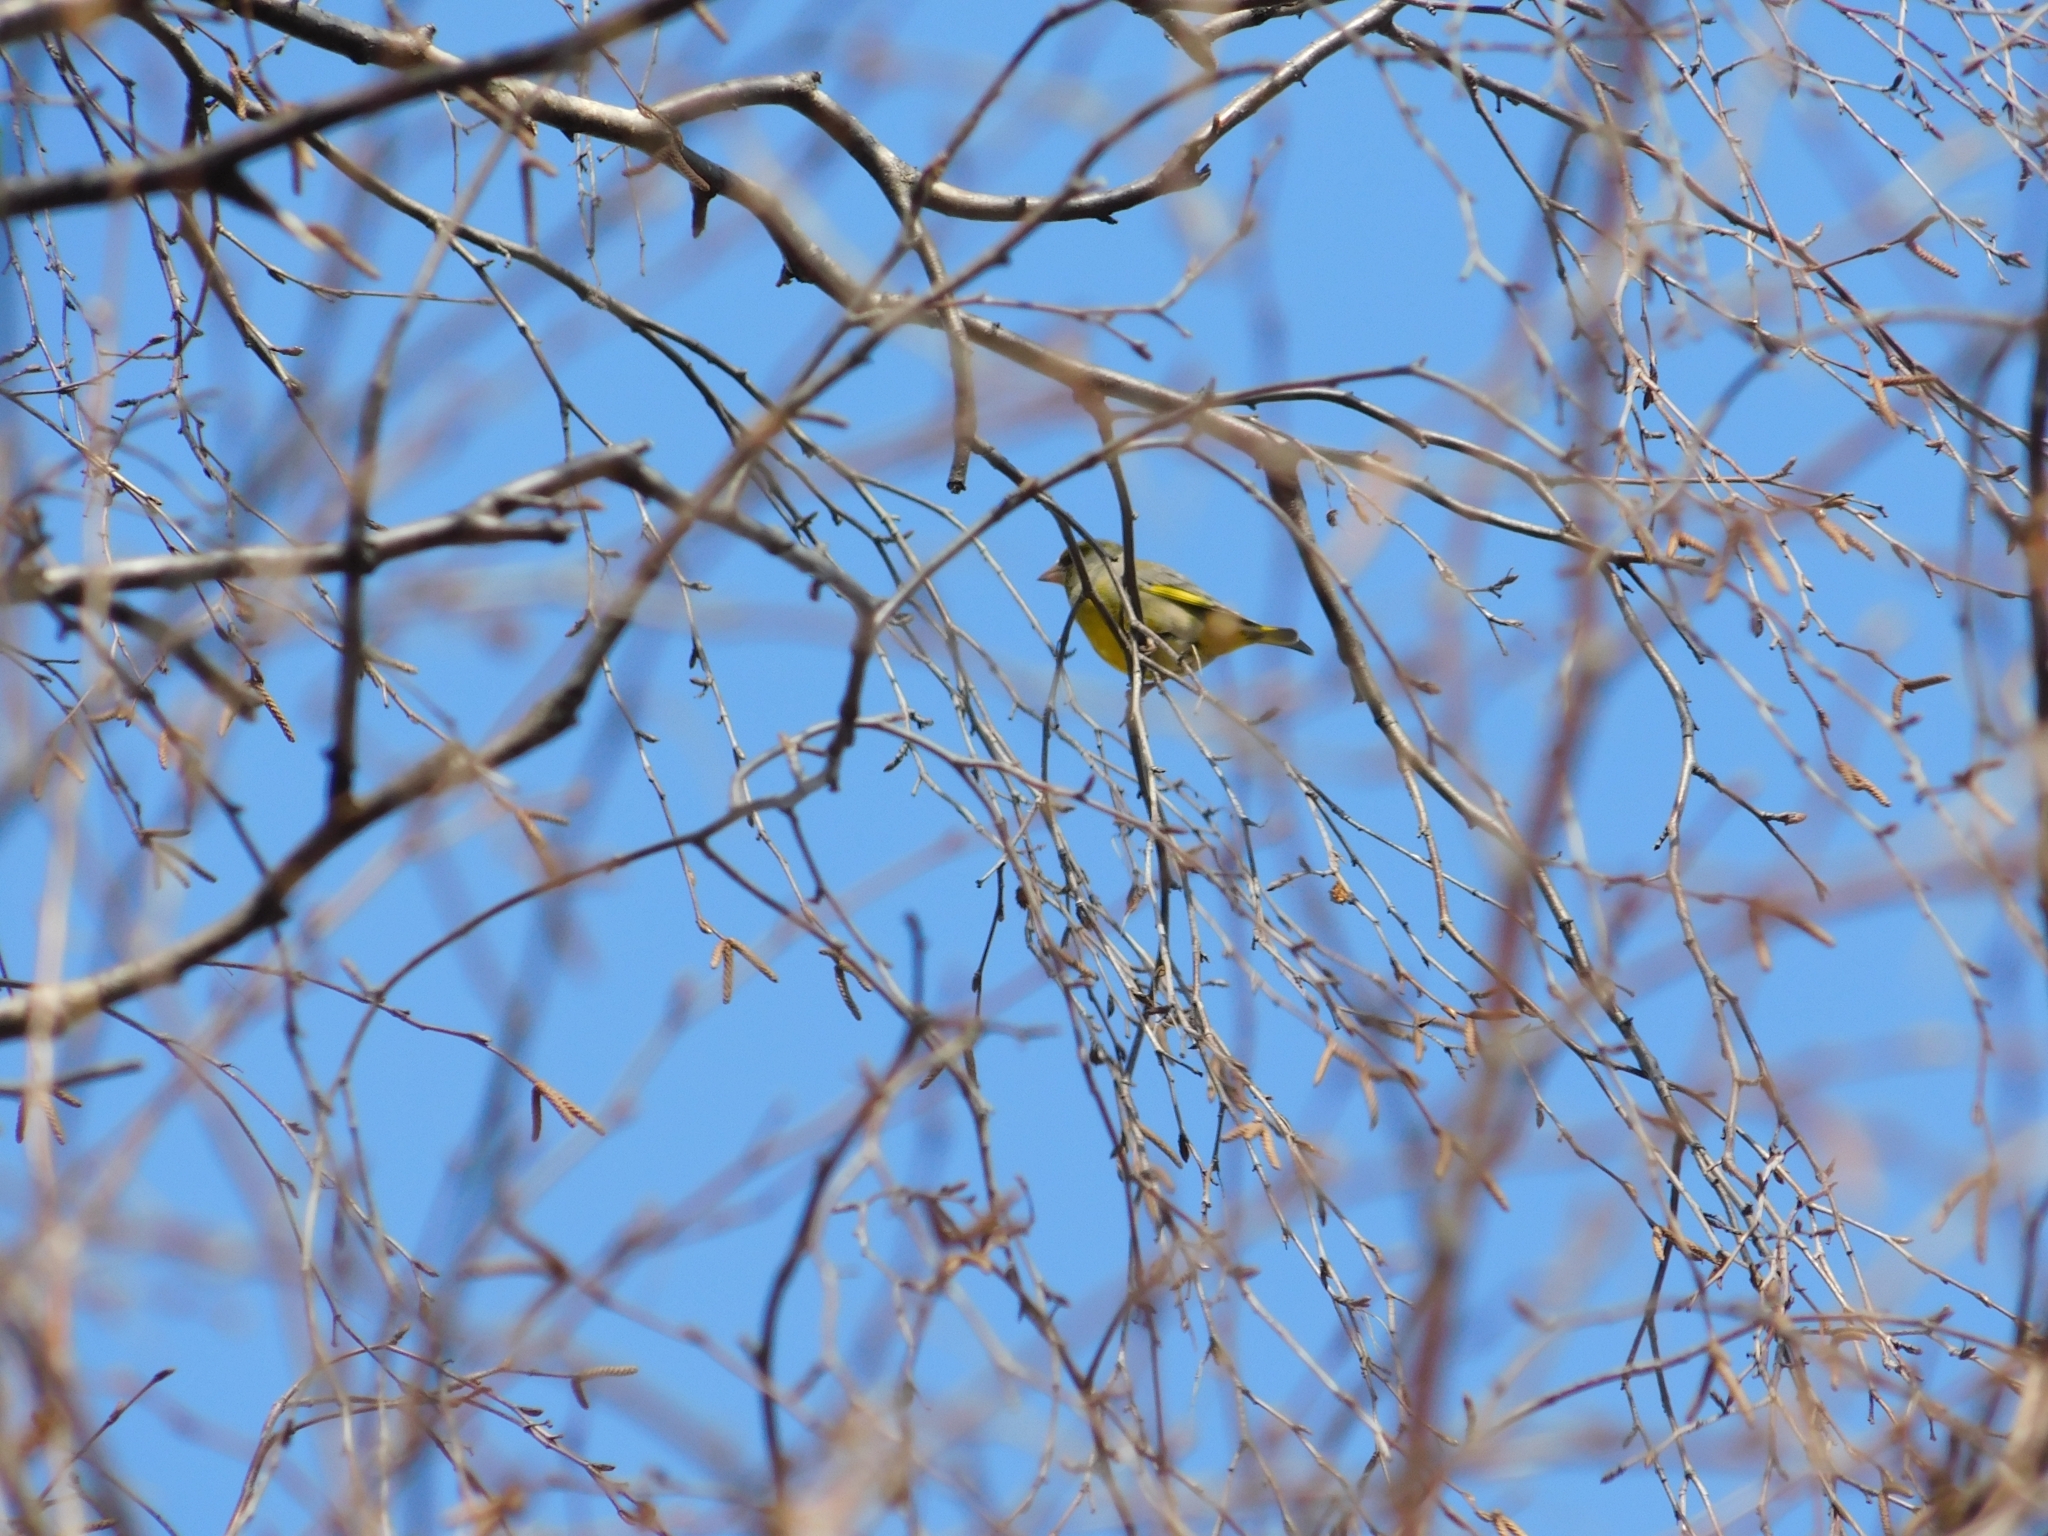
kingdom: Plantae
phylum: Tracheophyta
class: Liliopsida
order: Poales
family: Poaceae
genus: Chloris
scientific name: Chloris chloris
